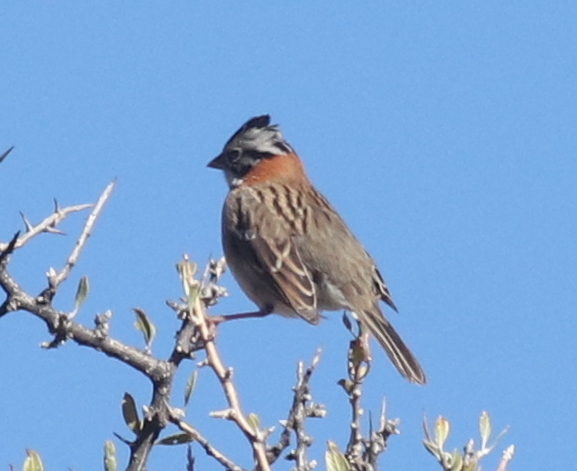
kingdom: Animalia
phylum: Chordata
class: Aves
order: Passeriformes
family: Passerellidae
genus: Zonotrichia
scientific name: Zonotrichia capensis
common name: Rufous-collared sparrow
